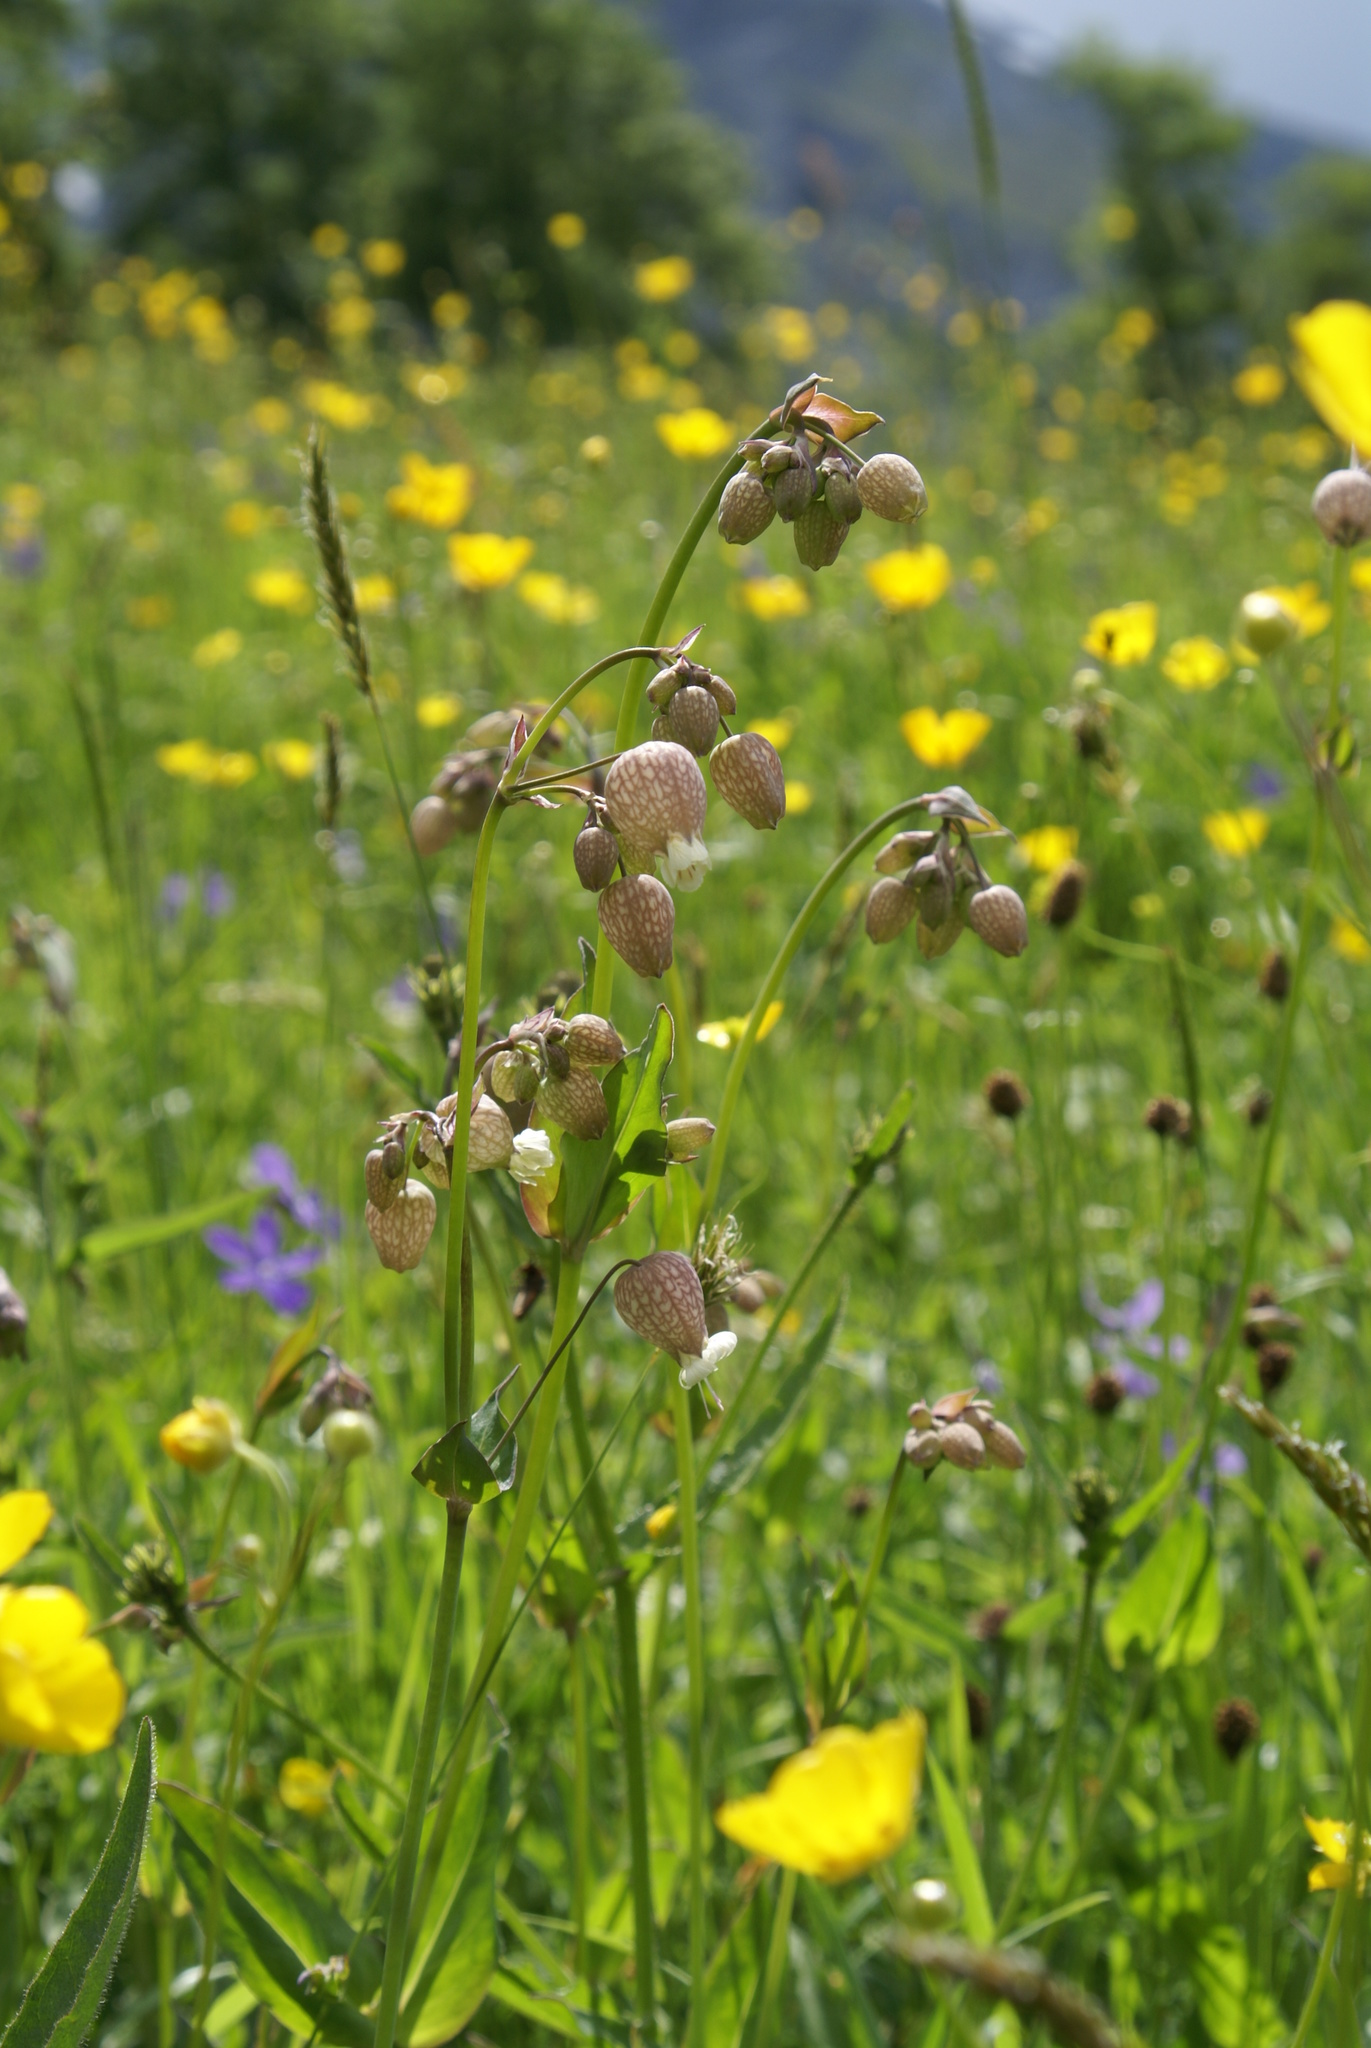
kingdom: Plantae
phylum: Tracheophyta
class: Magnoliopsida
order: Caryophyllales
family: Caryophyllaceae
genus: Silene
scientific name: Silene vulgaris
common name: Bladder campion
